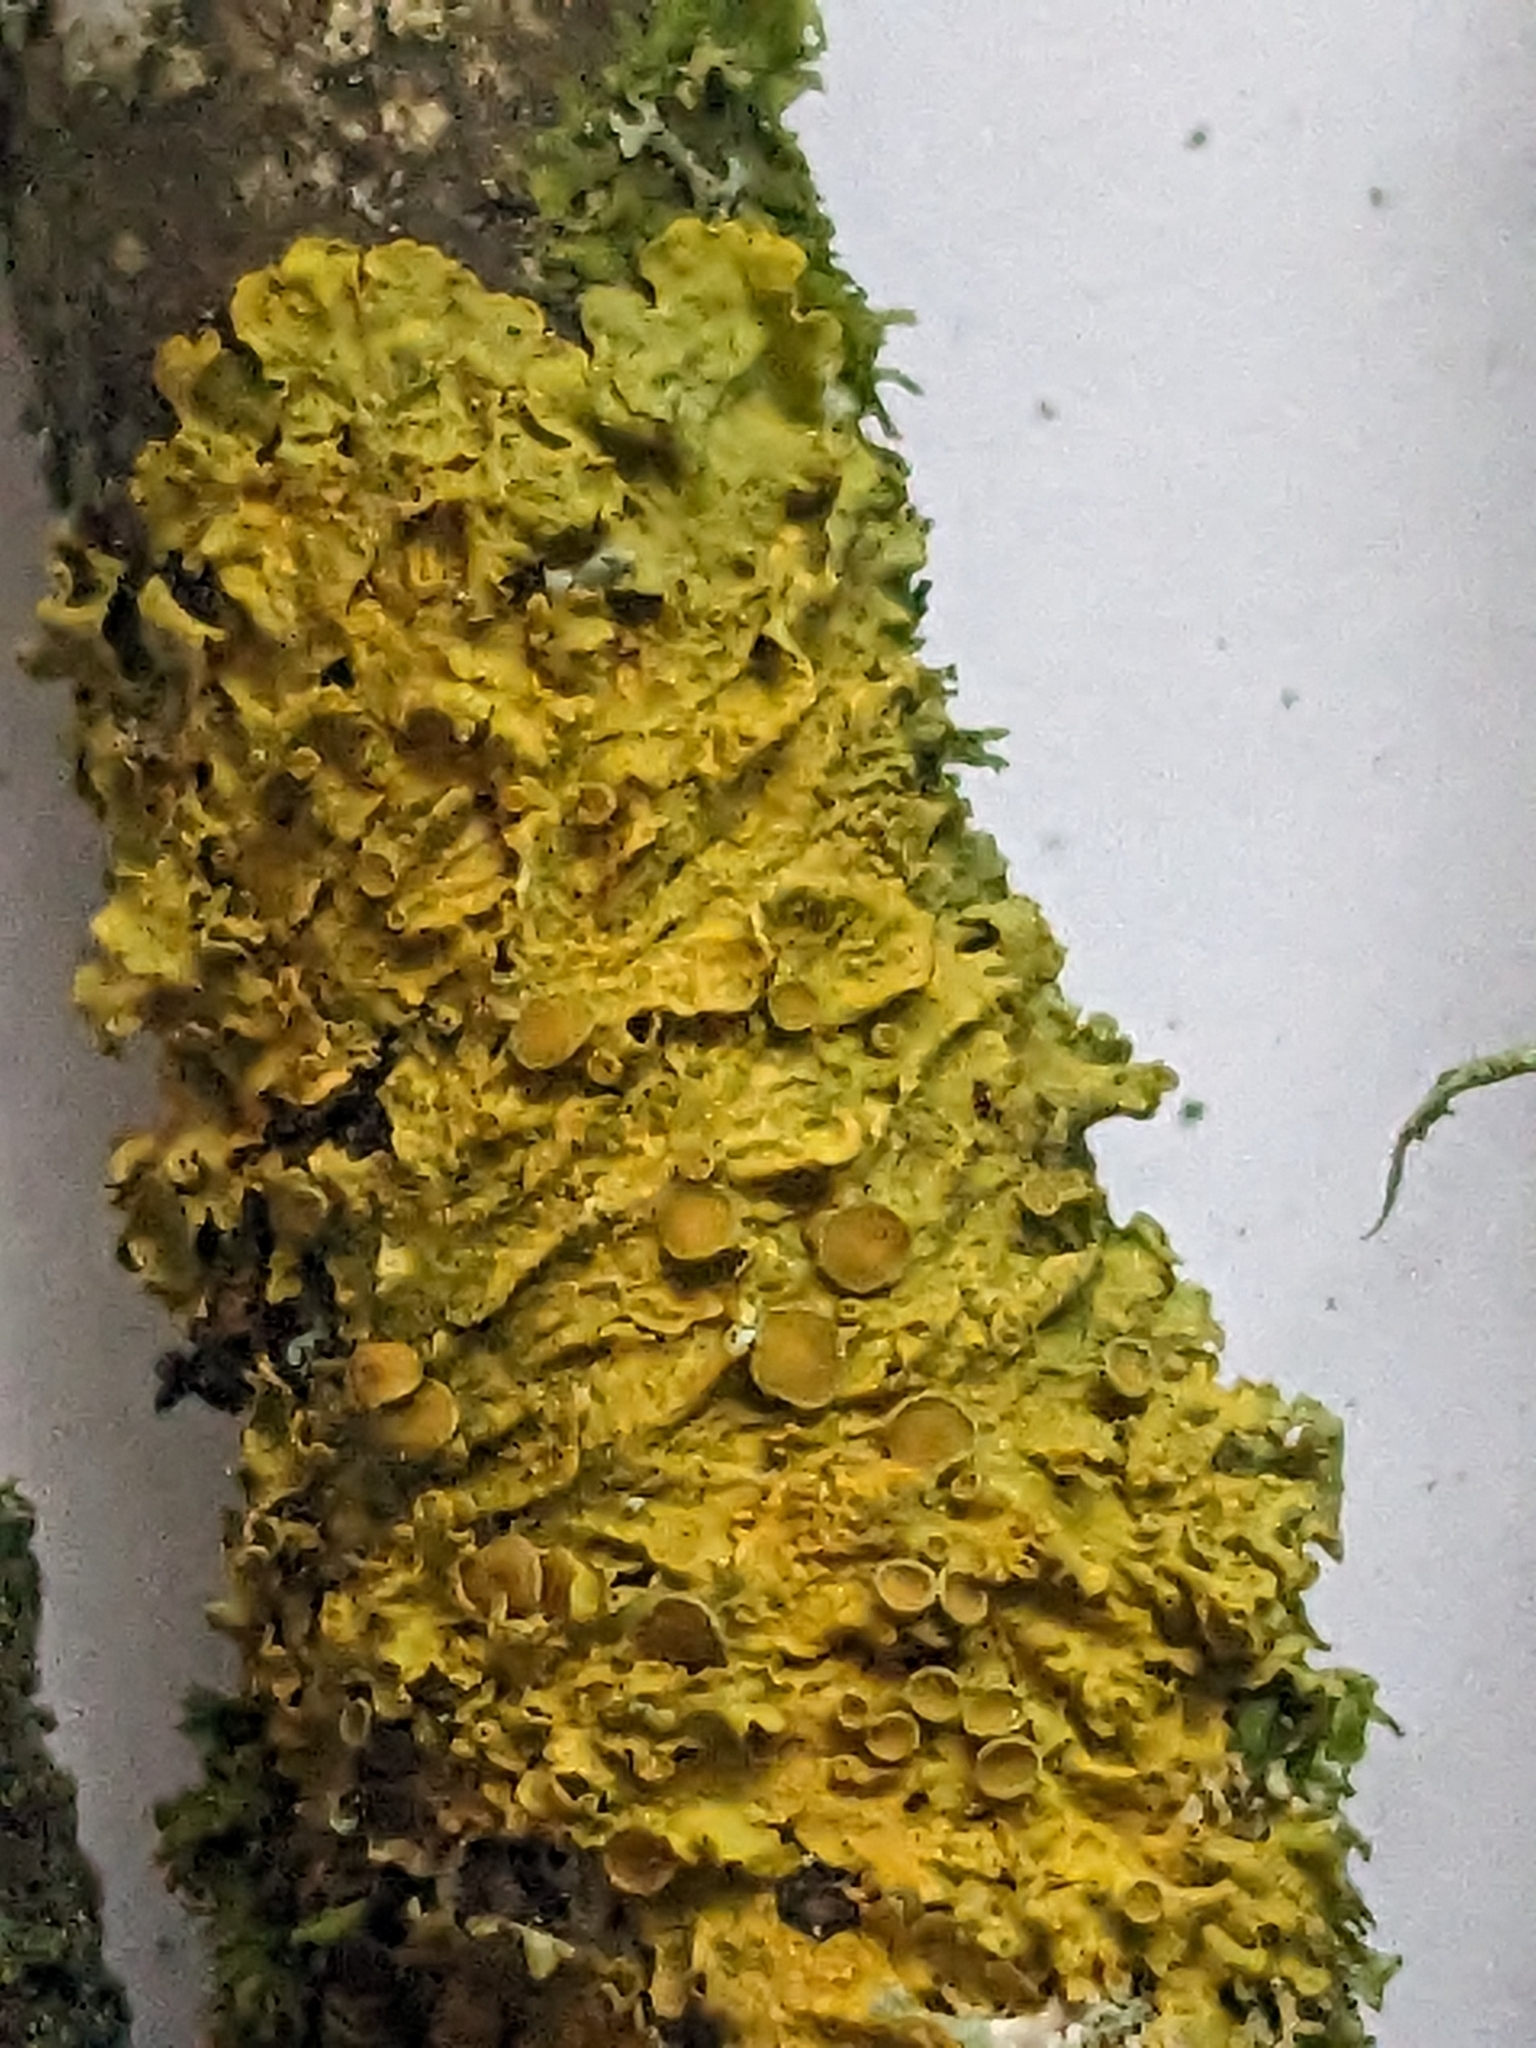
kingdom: Fungi
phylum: Ascomycota
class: Lecanoromycetes
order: Teloschistales
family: Teloschistaceae
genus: Xanthoria
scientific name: Xanthoria parietina
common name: Common orange lichen
